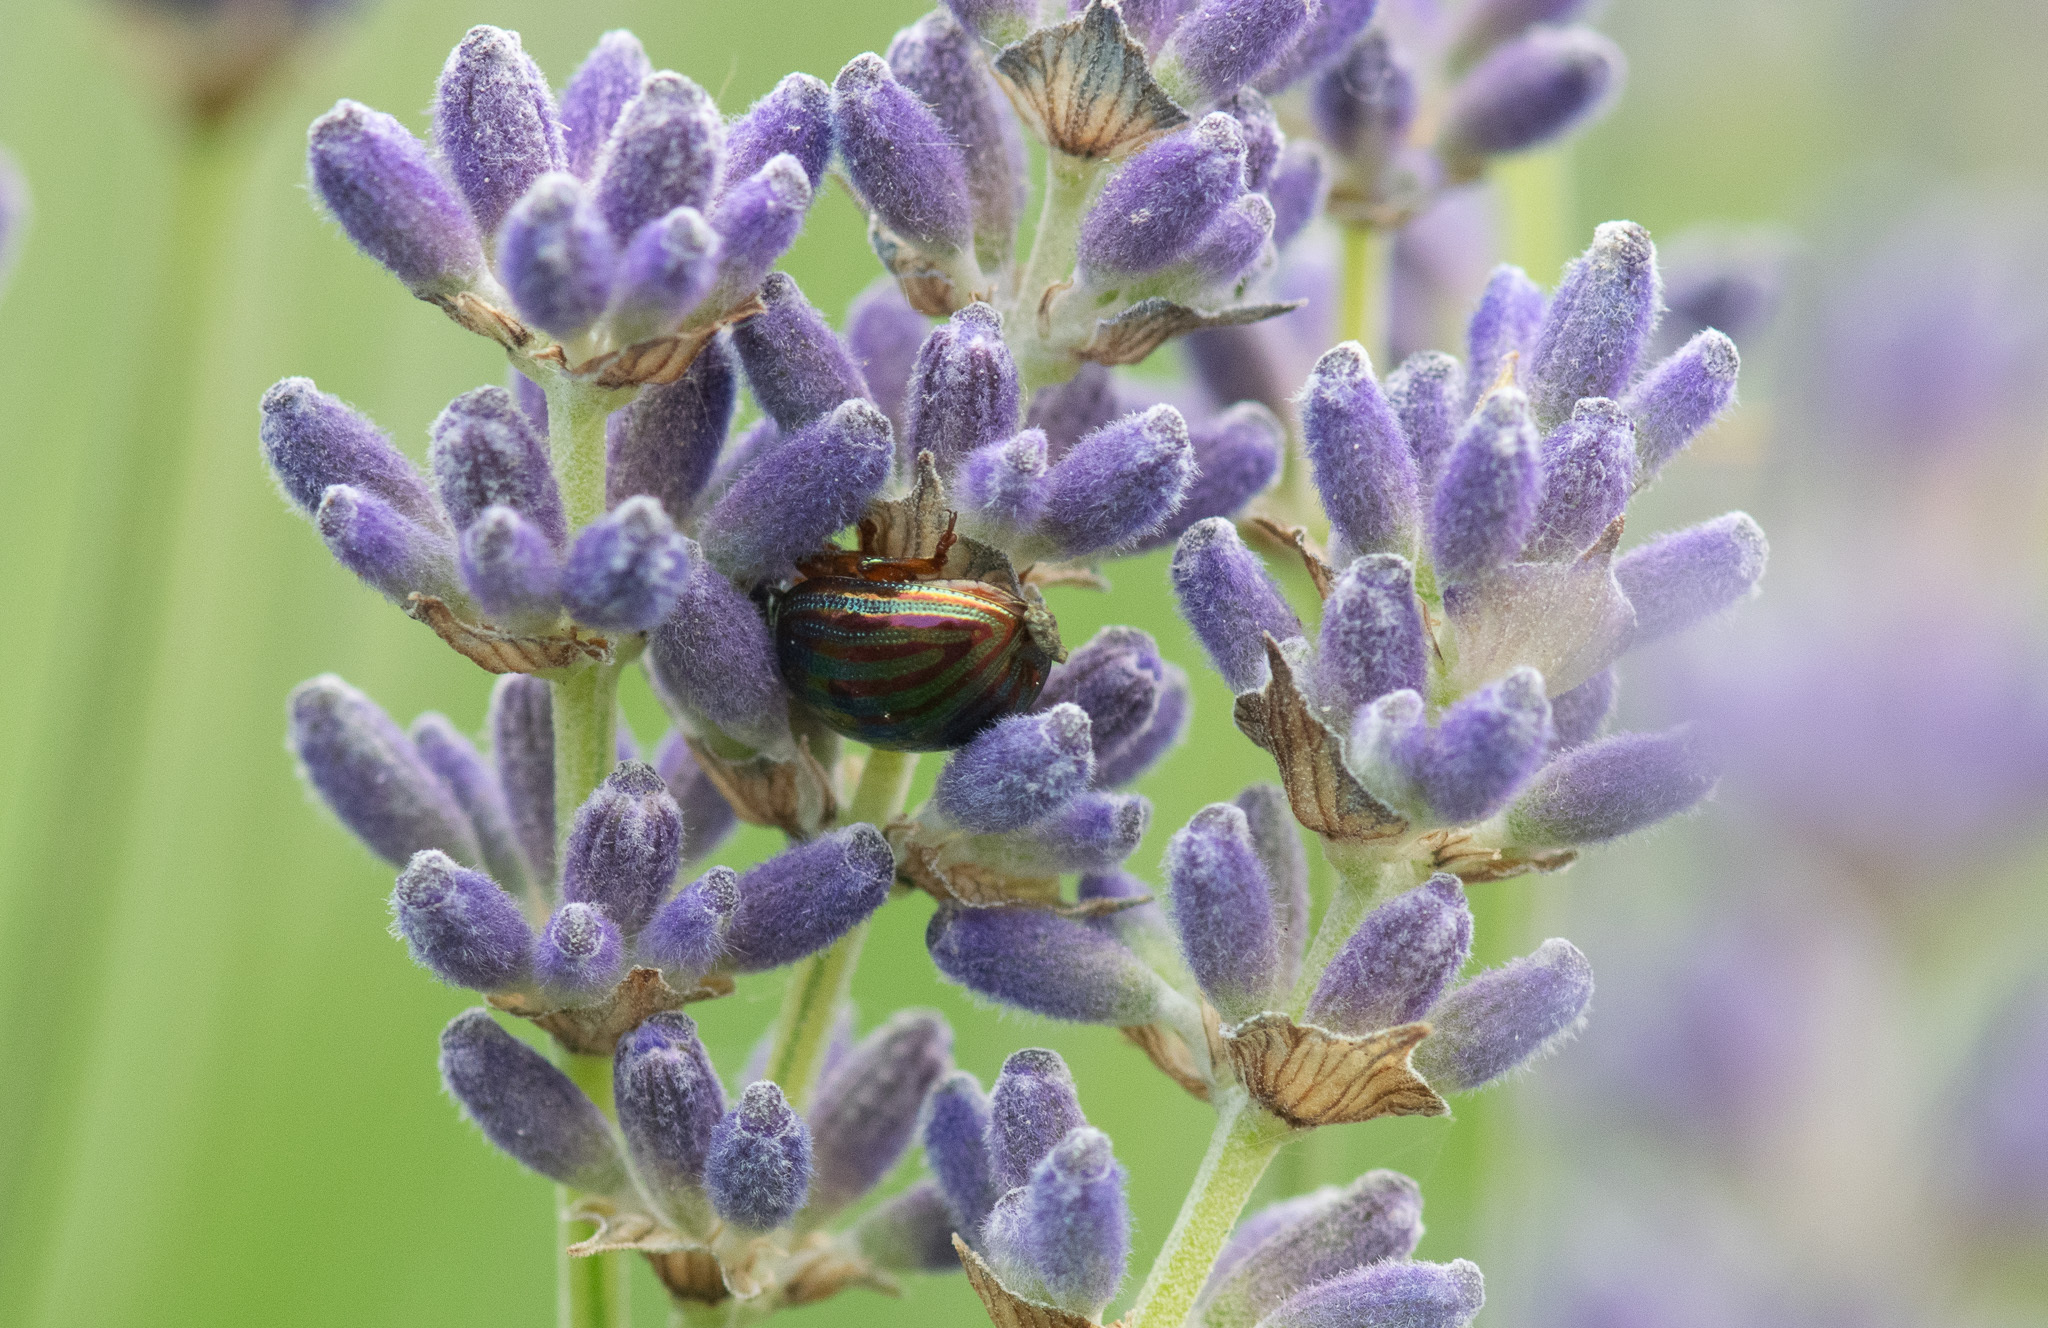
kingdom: Animalia
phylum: Arthropoda
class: Insecta
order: Coleoptera
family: Chrysomelidae
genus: Chrysolina
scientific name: Chrysolina americana
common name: Rosemary beetle
